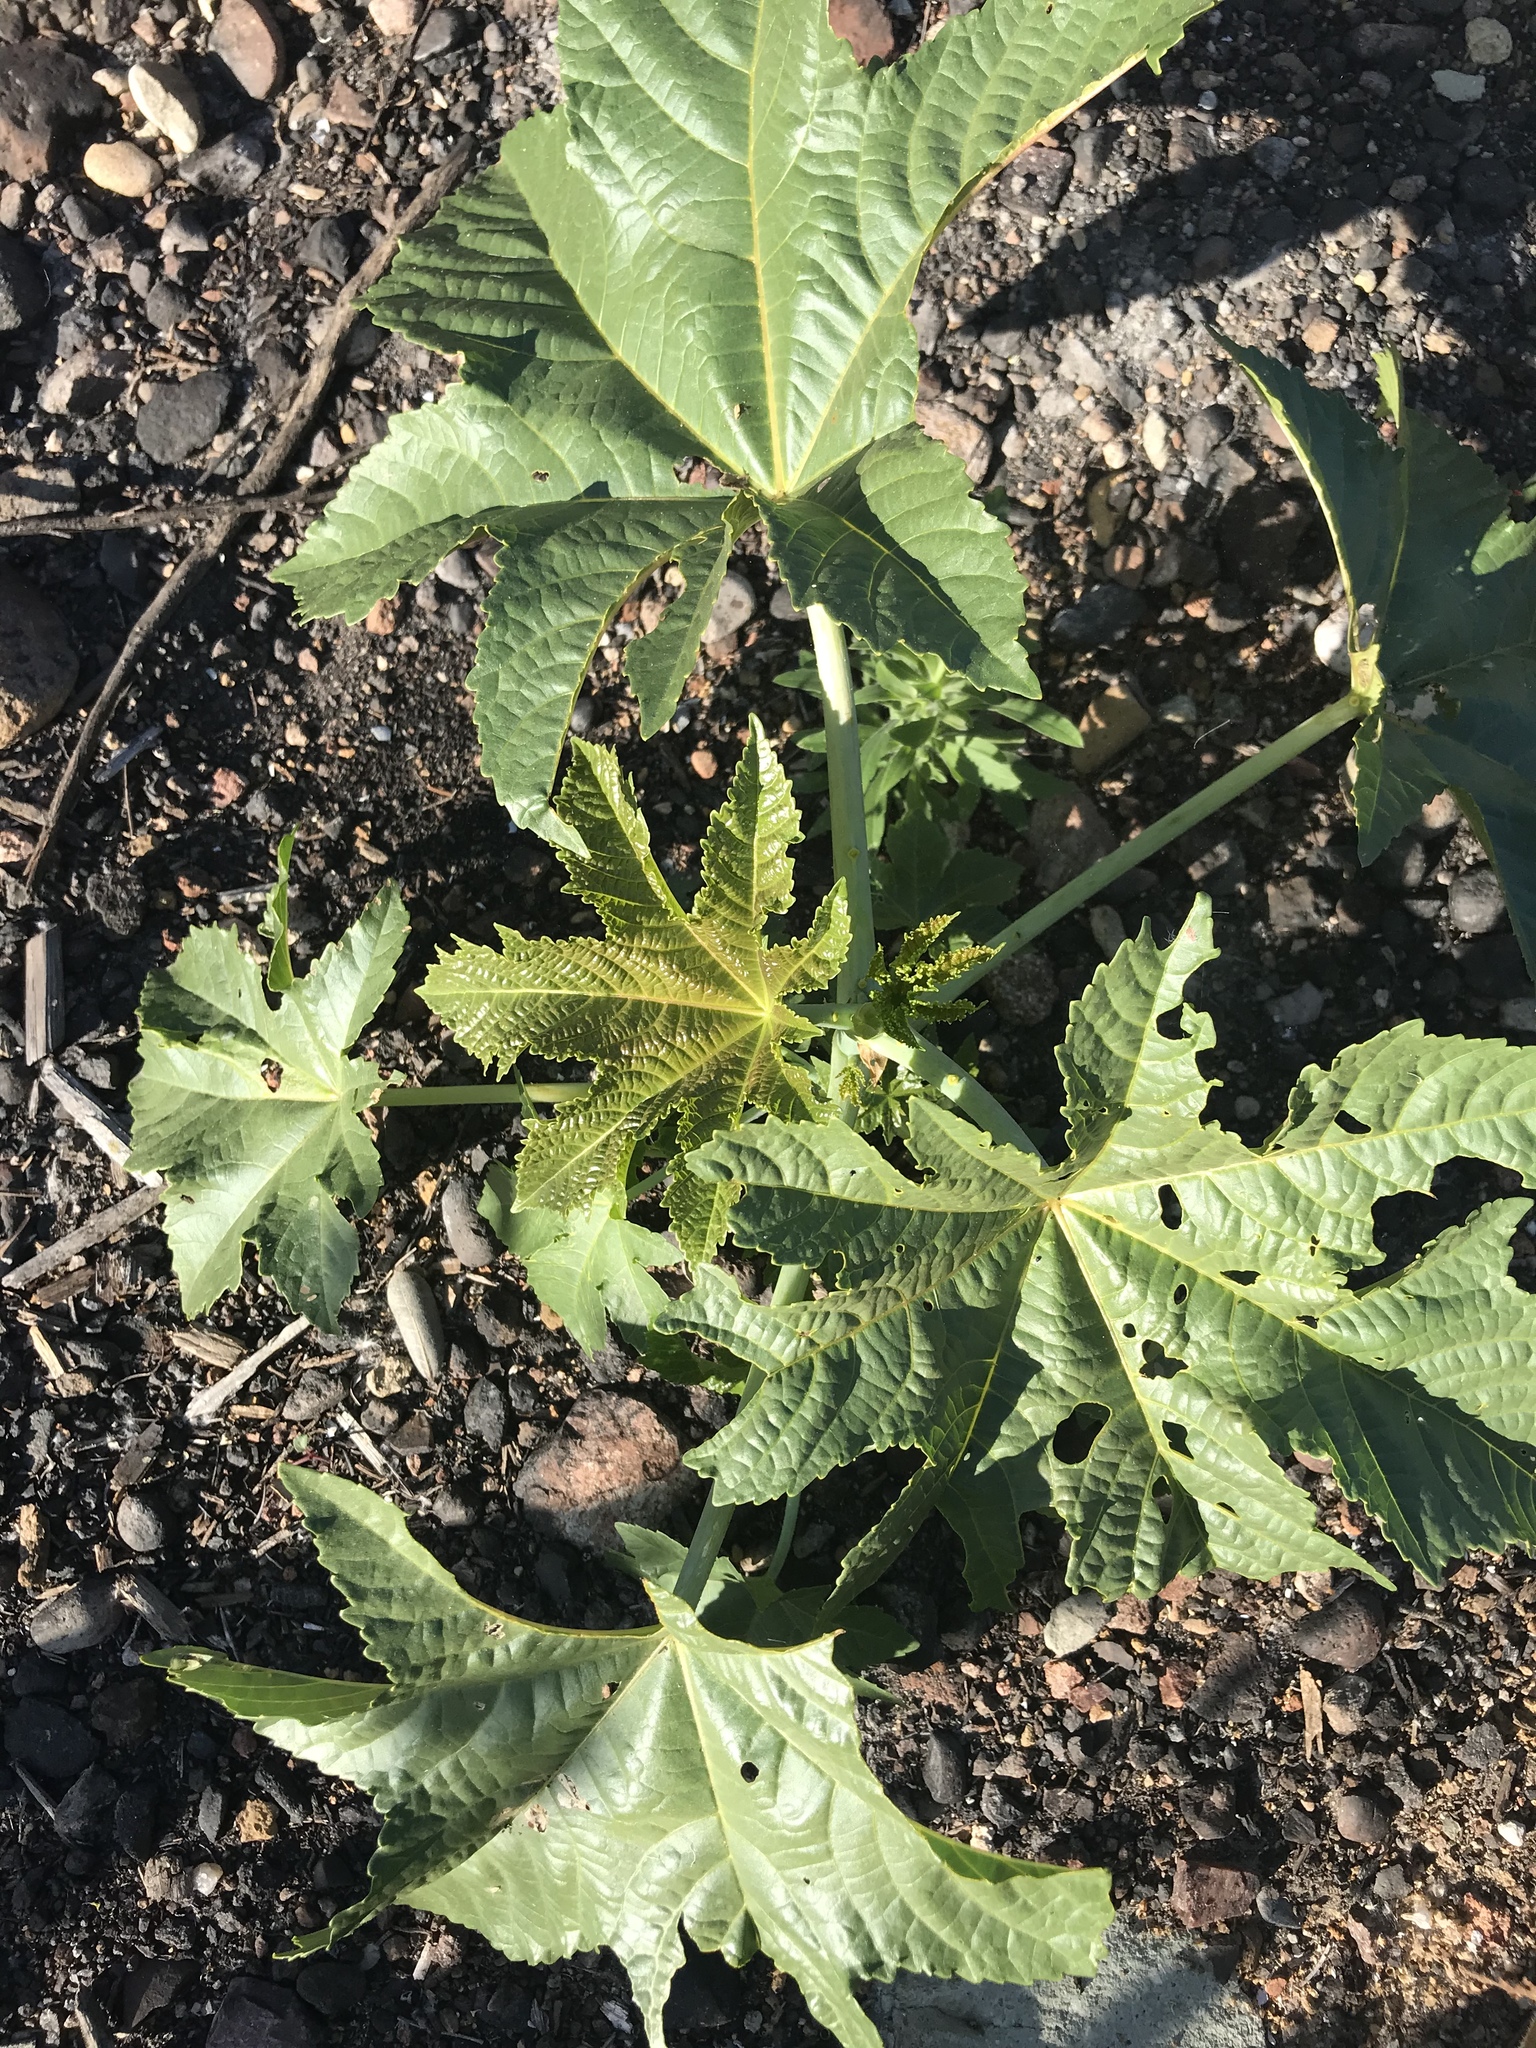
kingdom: Plantae
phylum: Tracheophyta
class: Magnoliopsida
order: Malpighiales
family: Euphorbiaceae
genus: Ricinus
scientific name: Ricinus communis
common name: Castor-oil-plant
